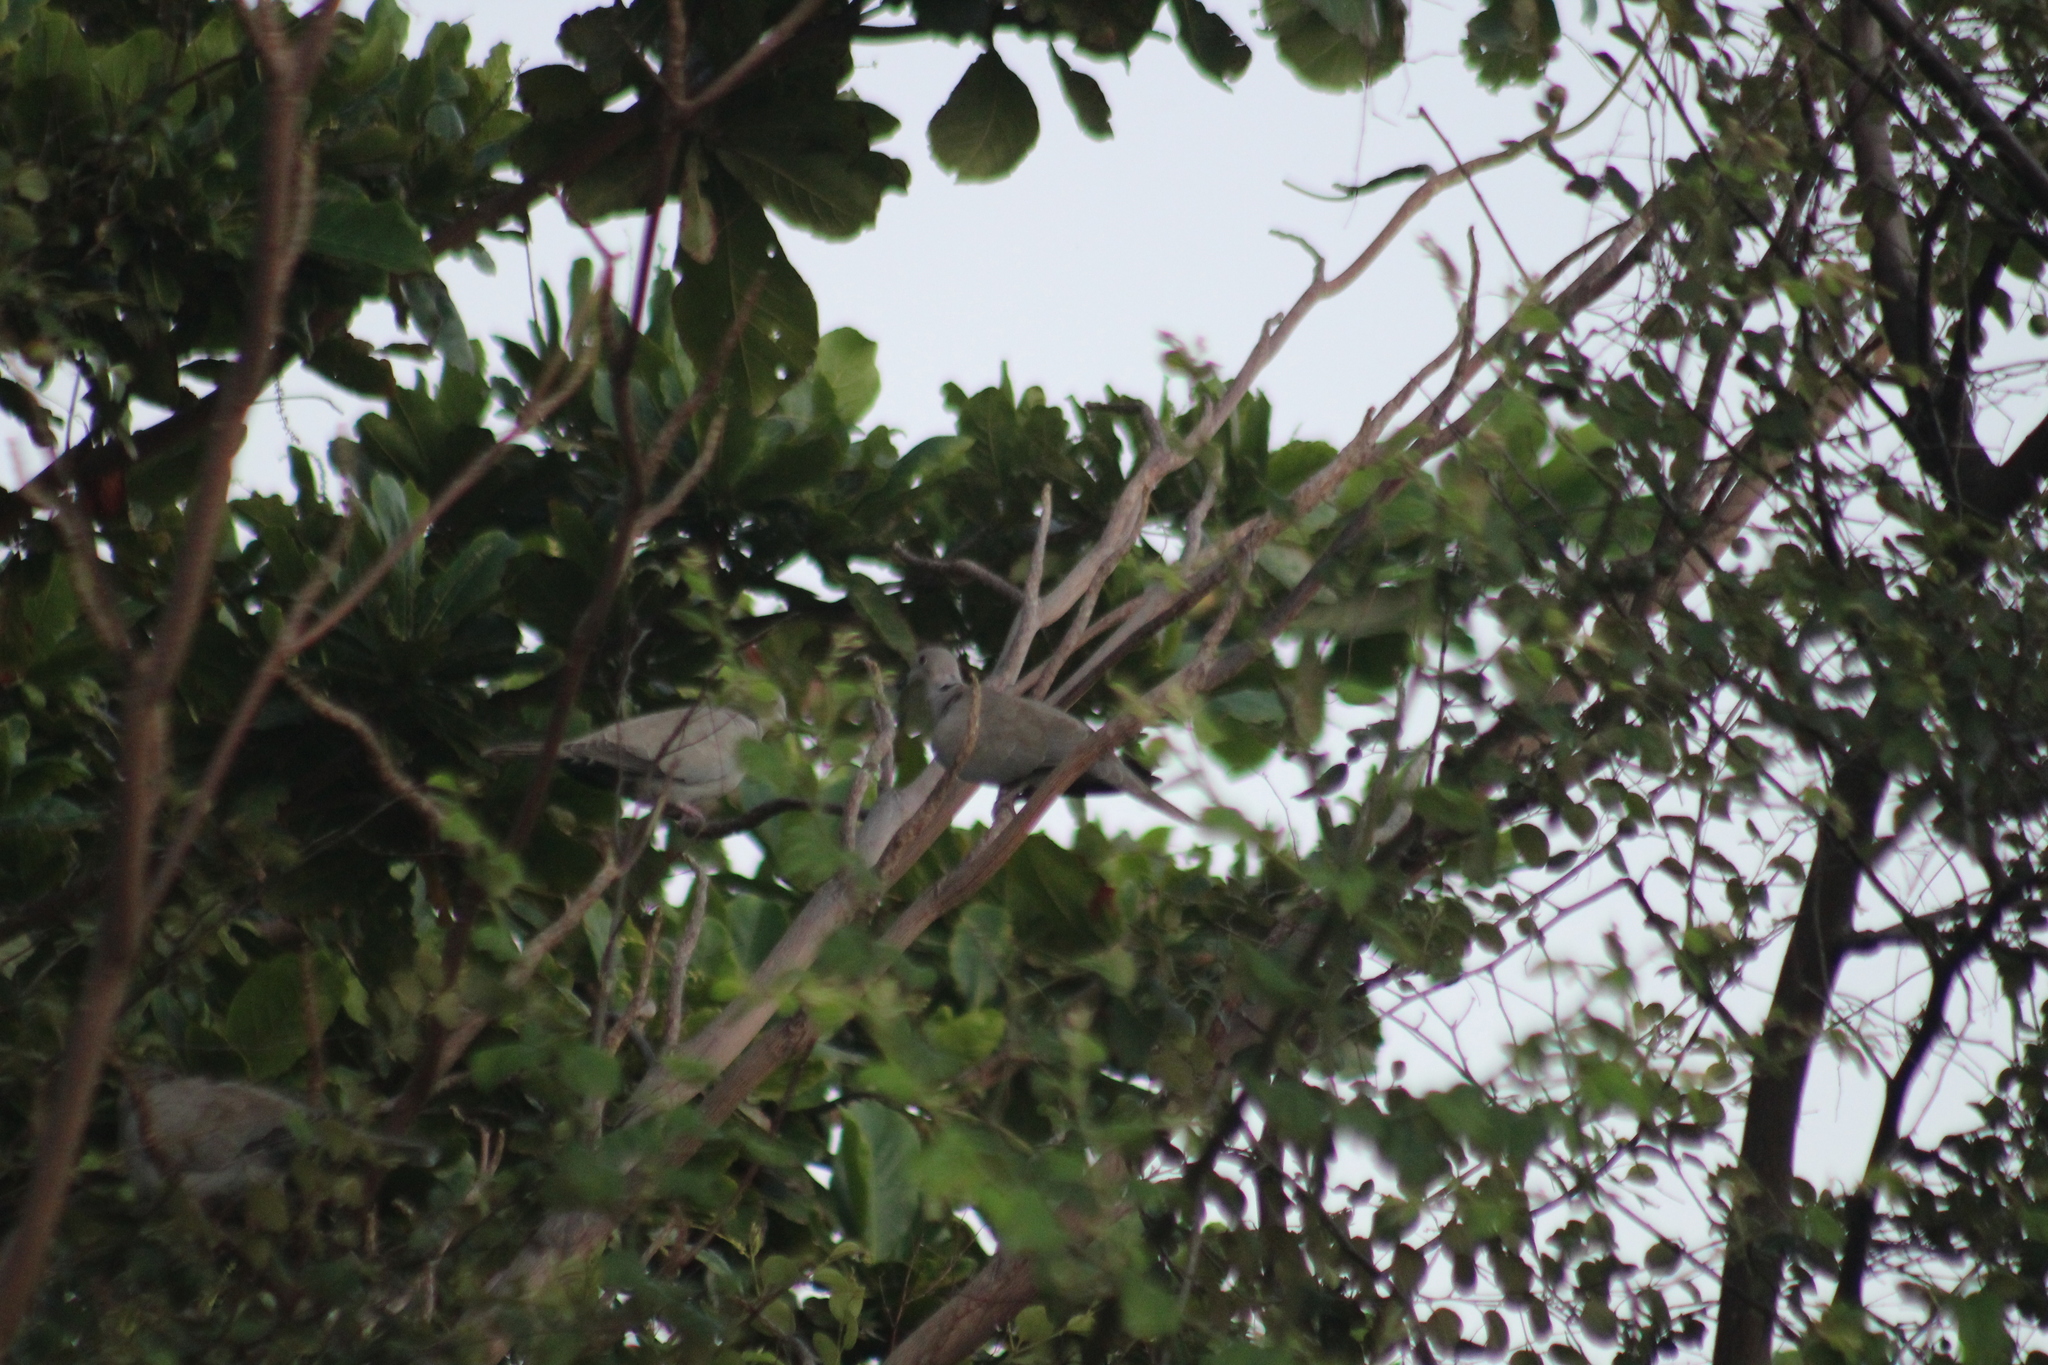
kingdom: Animalia
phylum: Chordata
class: Aves
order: Columbiformes
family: Columbidae
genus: Streptopelia
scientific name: Streptopelia decaocto
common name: Eurasian collared dove
